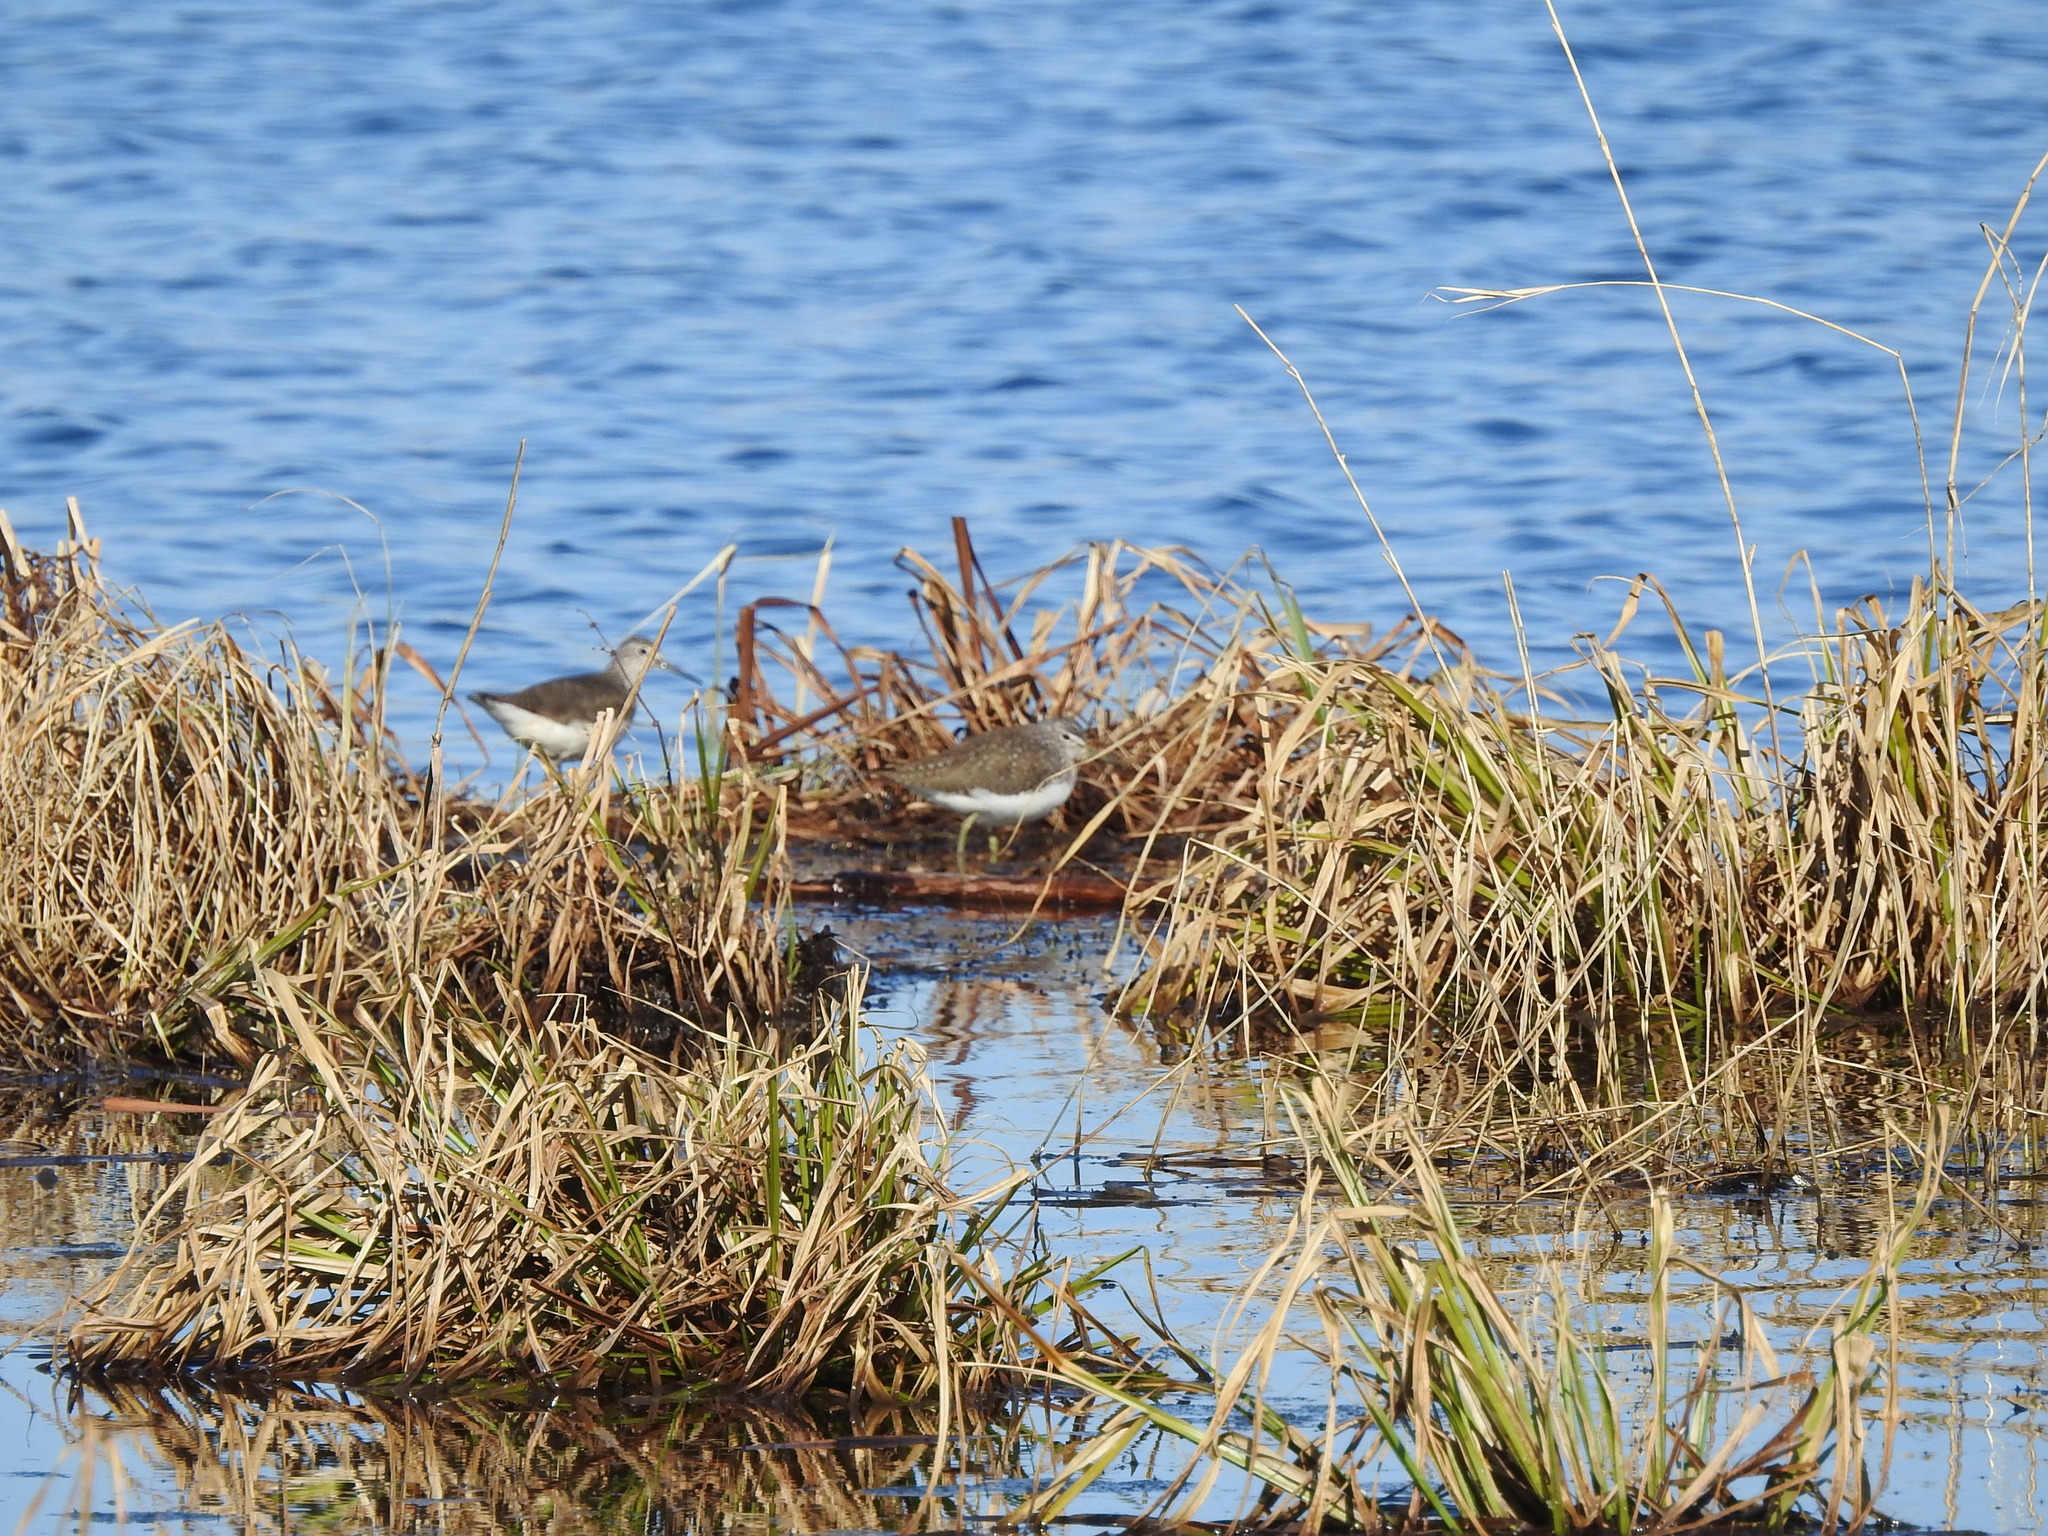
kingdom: Animalia
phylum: Chordata
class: Aves
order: Charadriiformes
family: Scolopacidae
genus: Tringa
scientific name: Tringa ochropus
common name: Green sandpiper
